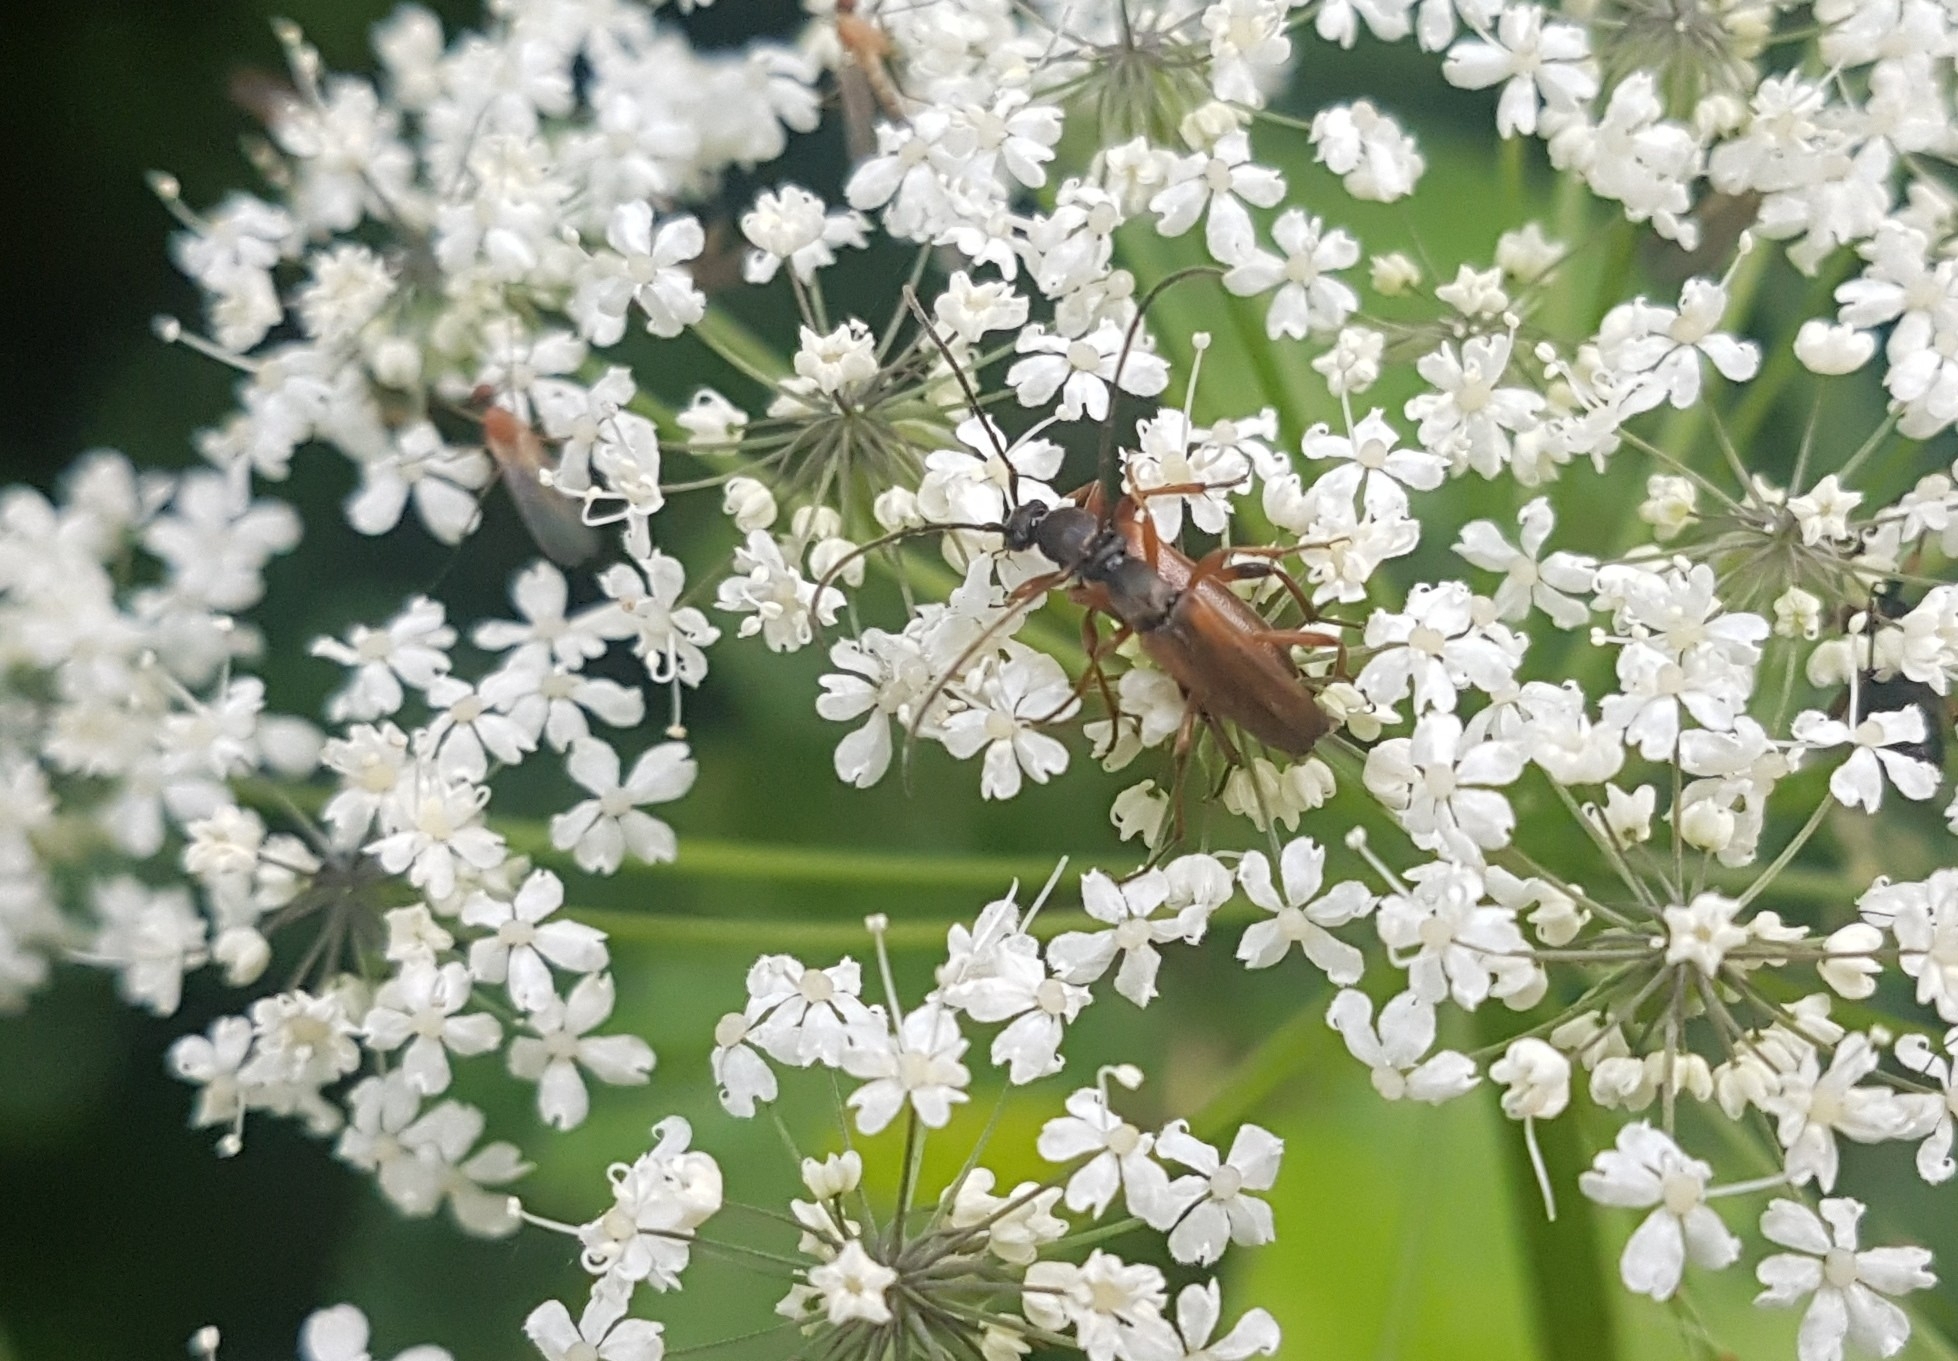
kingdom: Animalia
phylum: Arthropoda
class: Insecta
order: Coleoptera
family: Cerambycidae
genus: Alosterna
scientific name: Alosterna tabacicolor
